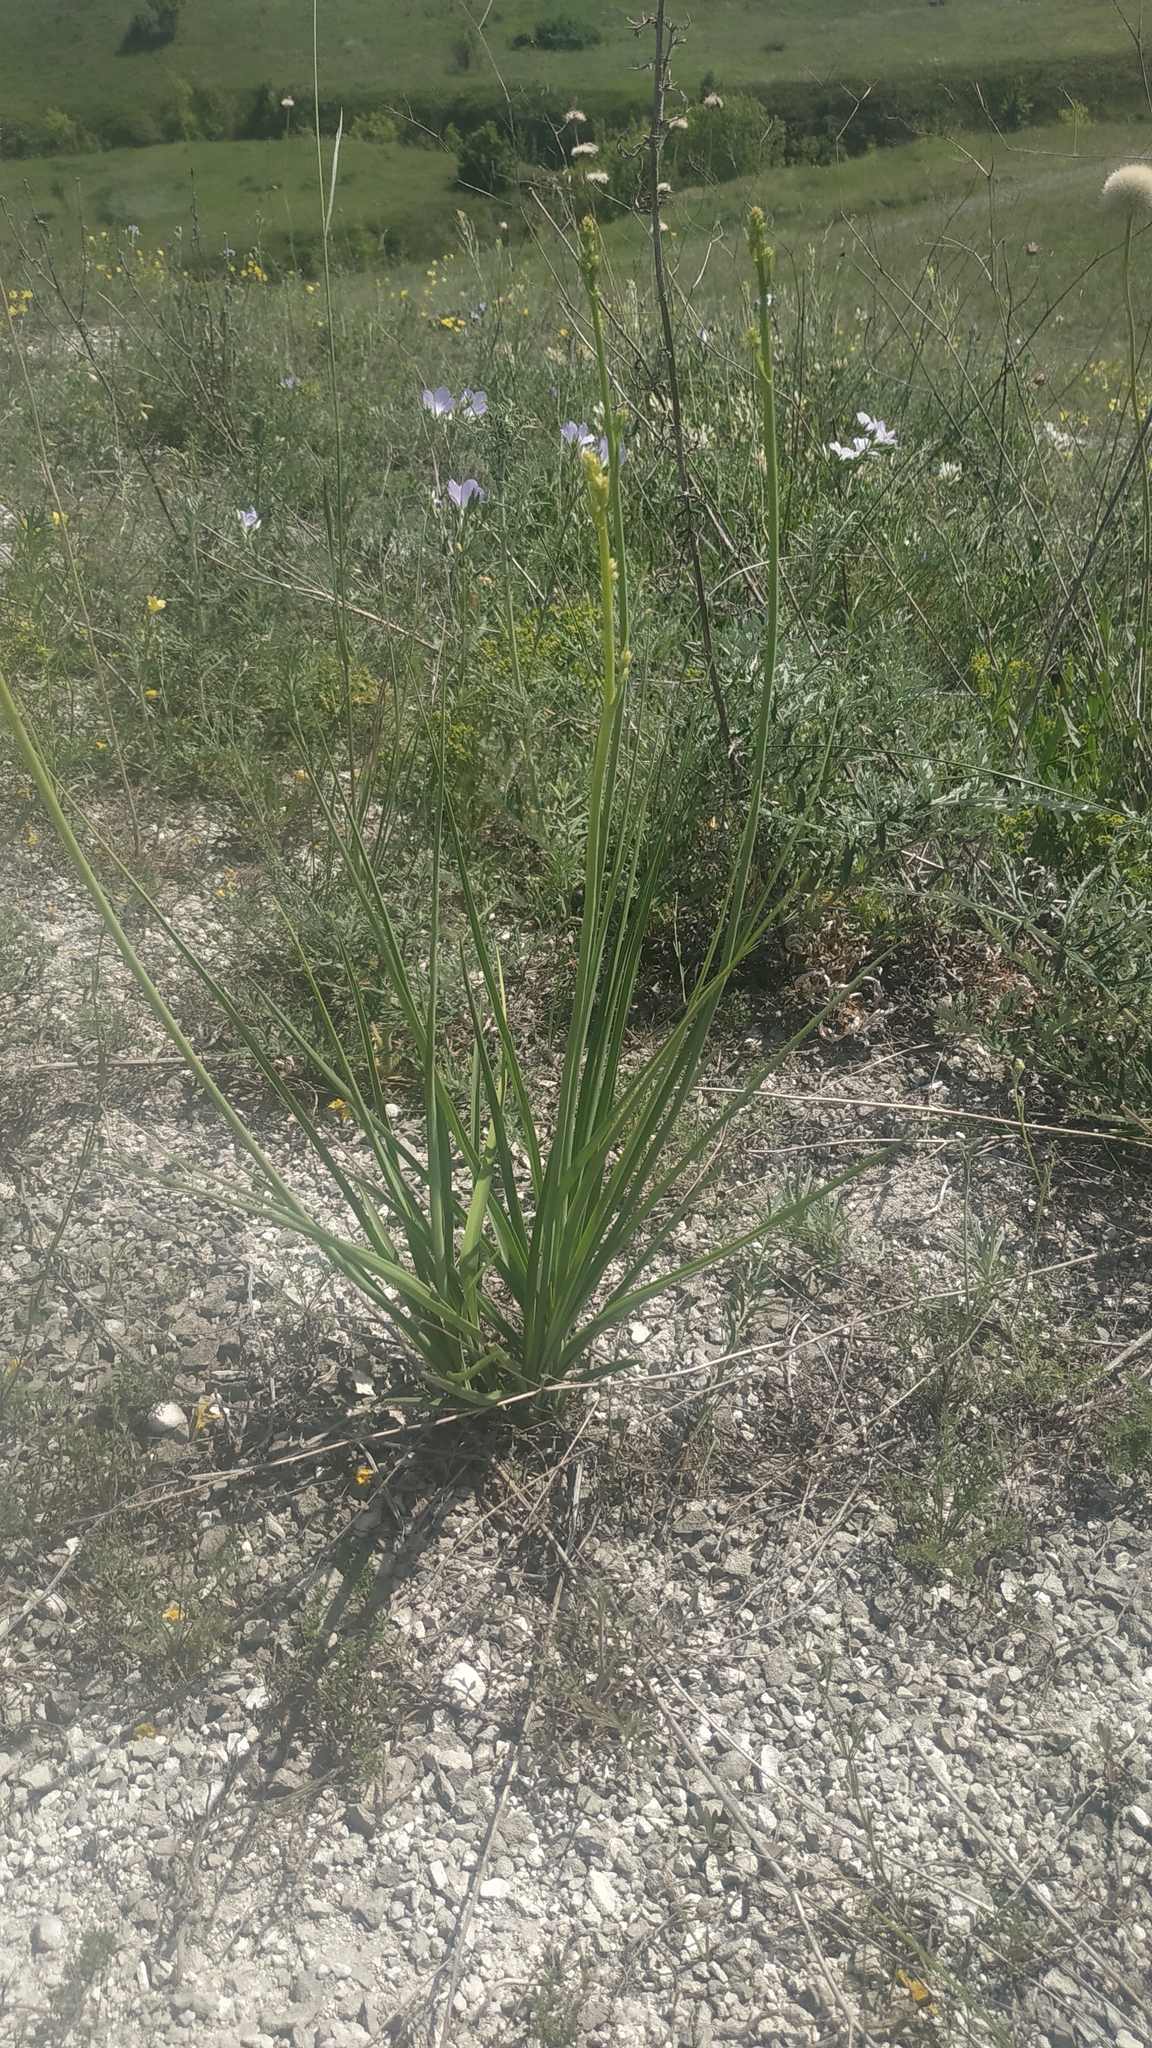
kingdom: Plantae
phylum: Tracheophyta
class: Liliopsida
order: Asparagales
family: Asparagaceae
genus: Anthericum
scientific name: Anthericum ramosum
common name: Branched st. bernard's-lily
